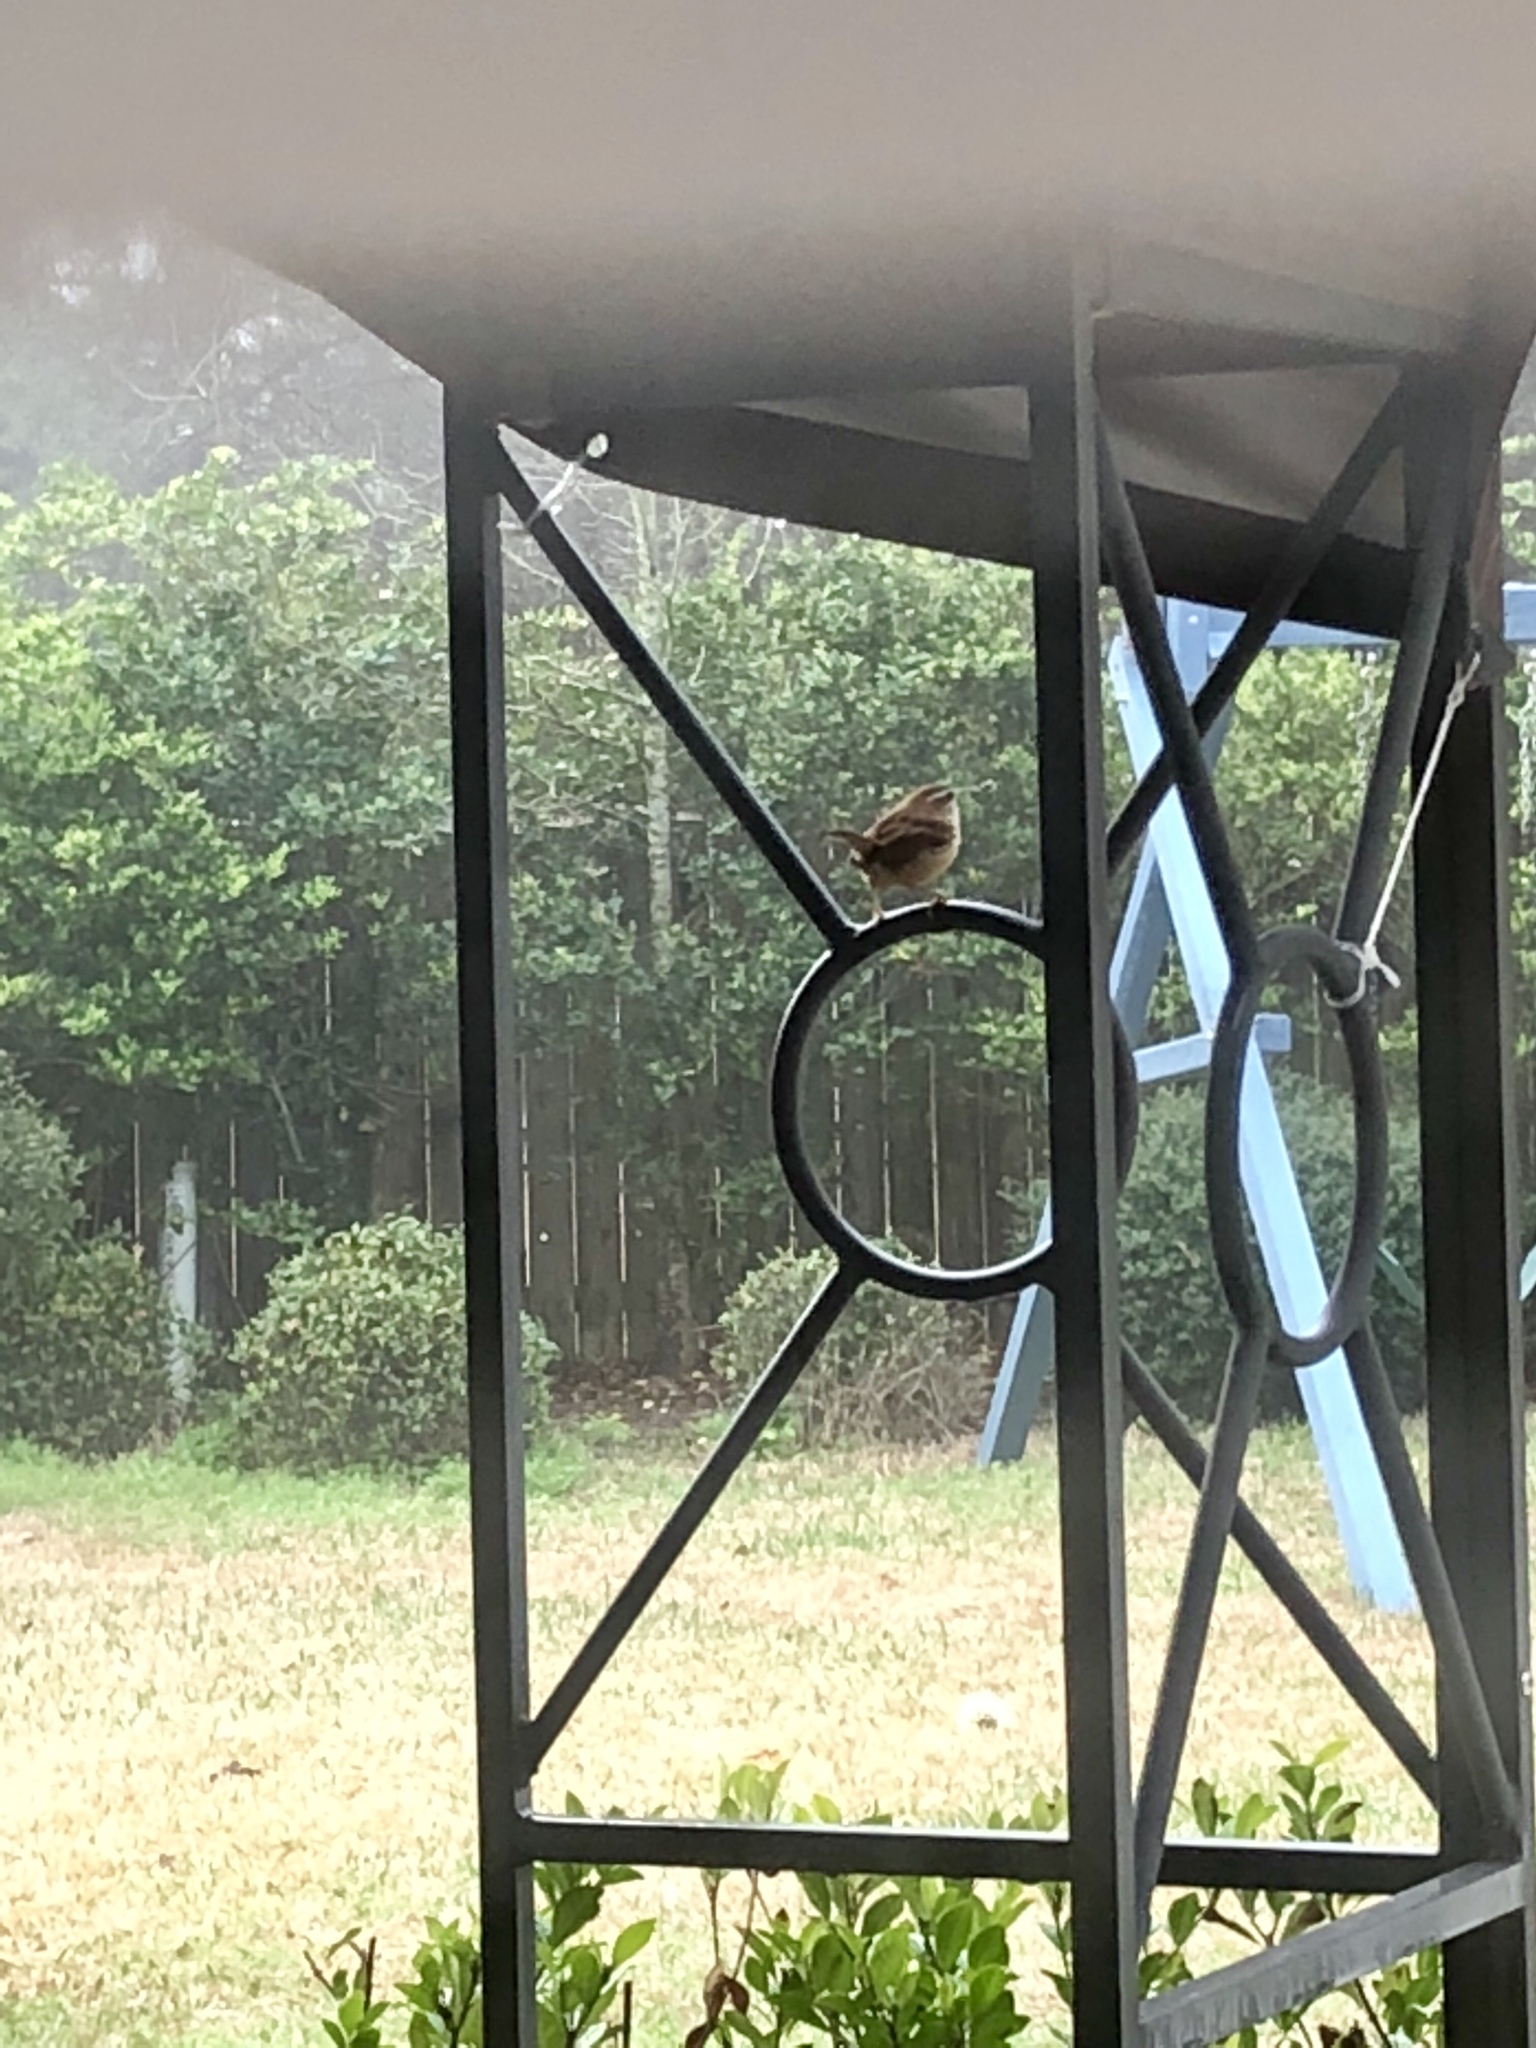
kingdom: Animalia
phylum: Chordata
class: Aves
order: Passeriformes
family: Troglodytidae
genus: Thryothorus
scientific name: Thryothorus ludovicianus
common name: Carolina wren
